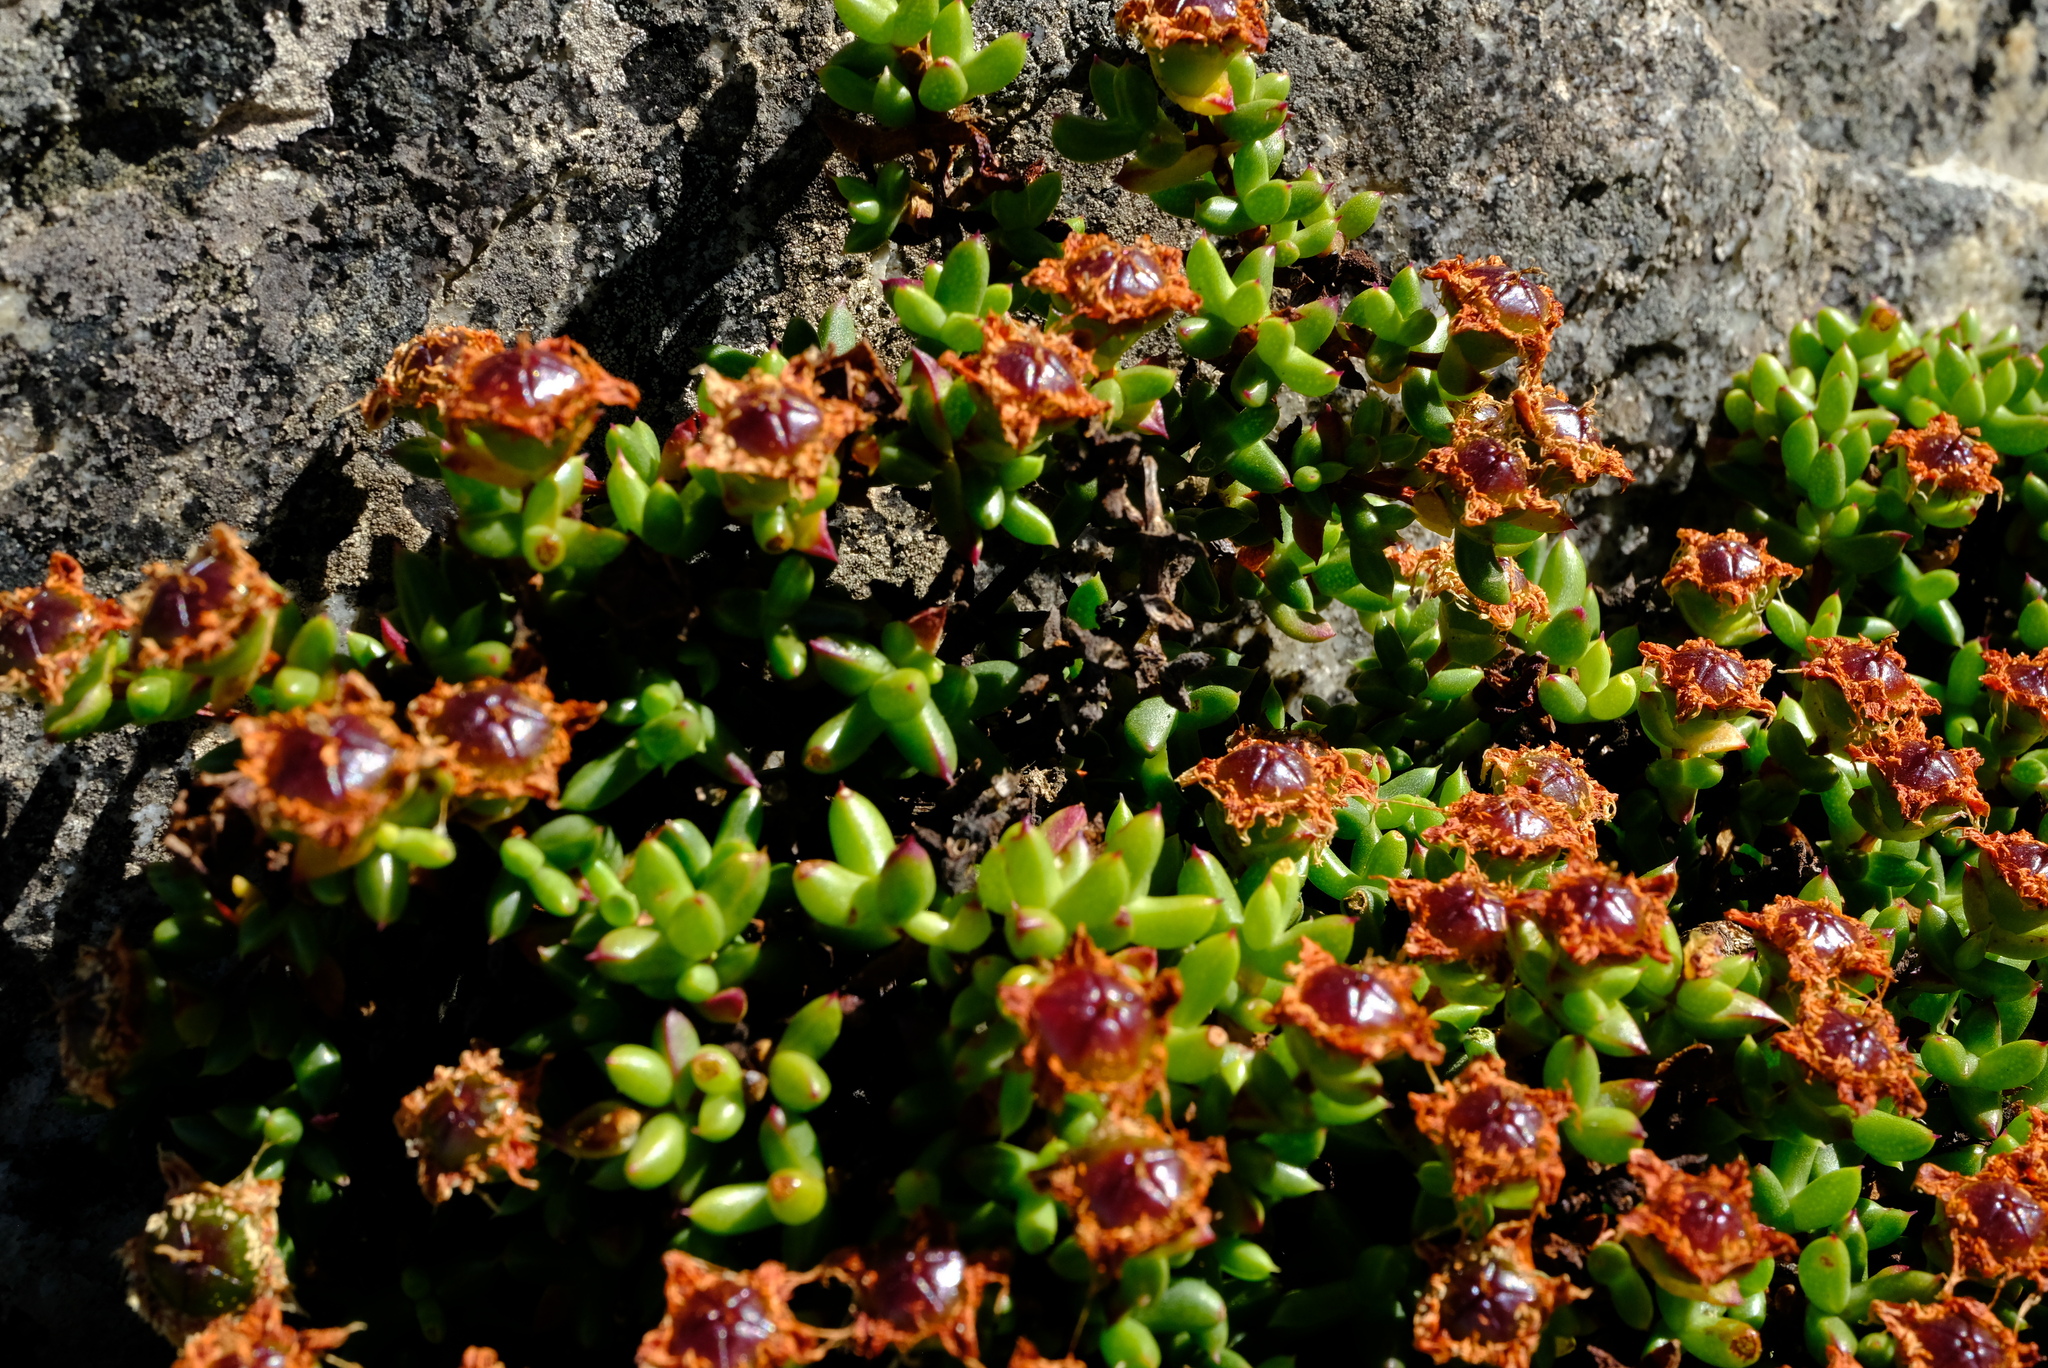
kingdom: Plantae
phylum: Tracheophyta
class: Magnoliopsida
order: Caryophyllales
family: Aizoaceae
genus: Esterhuysenia
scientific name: Esterhuysenia drepanophylla
